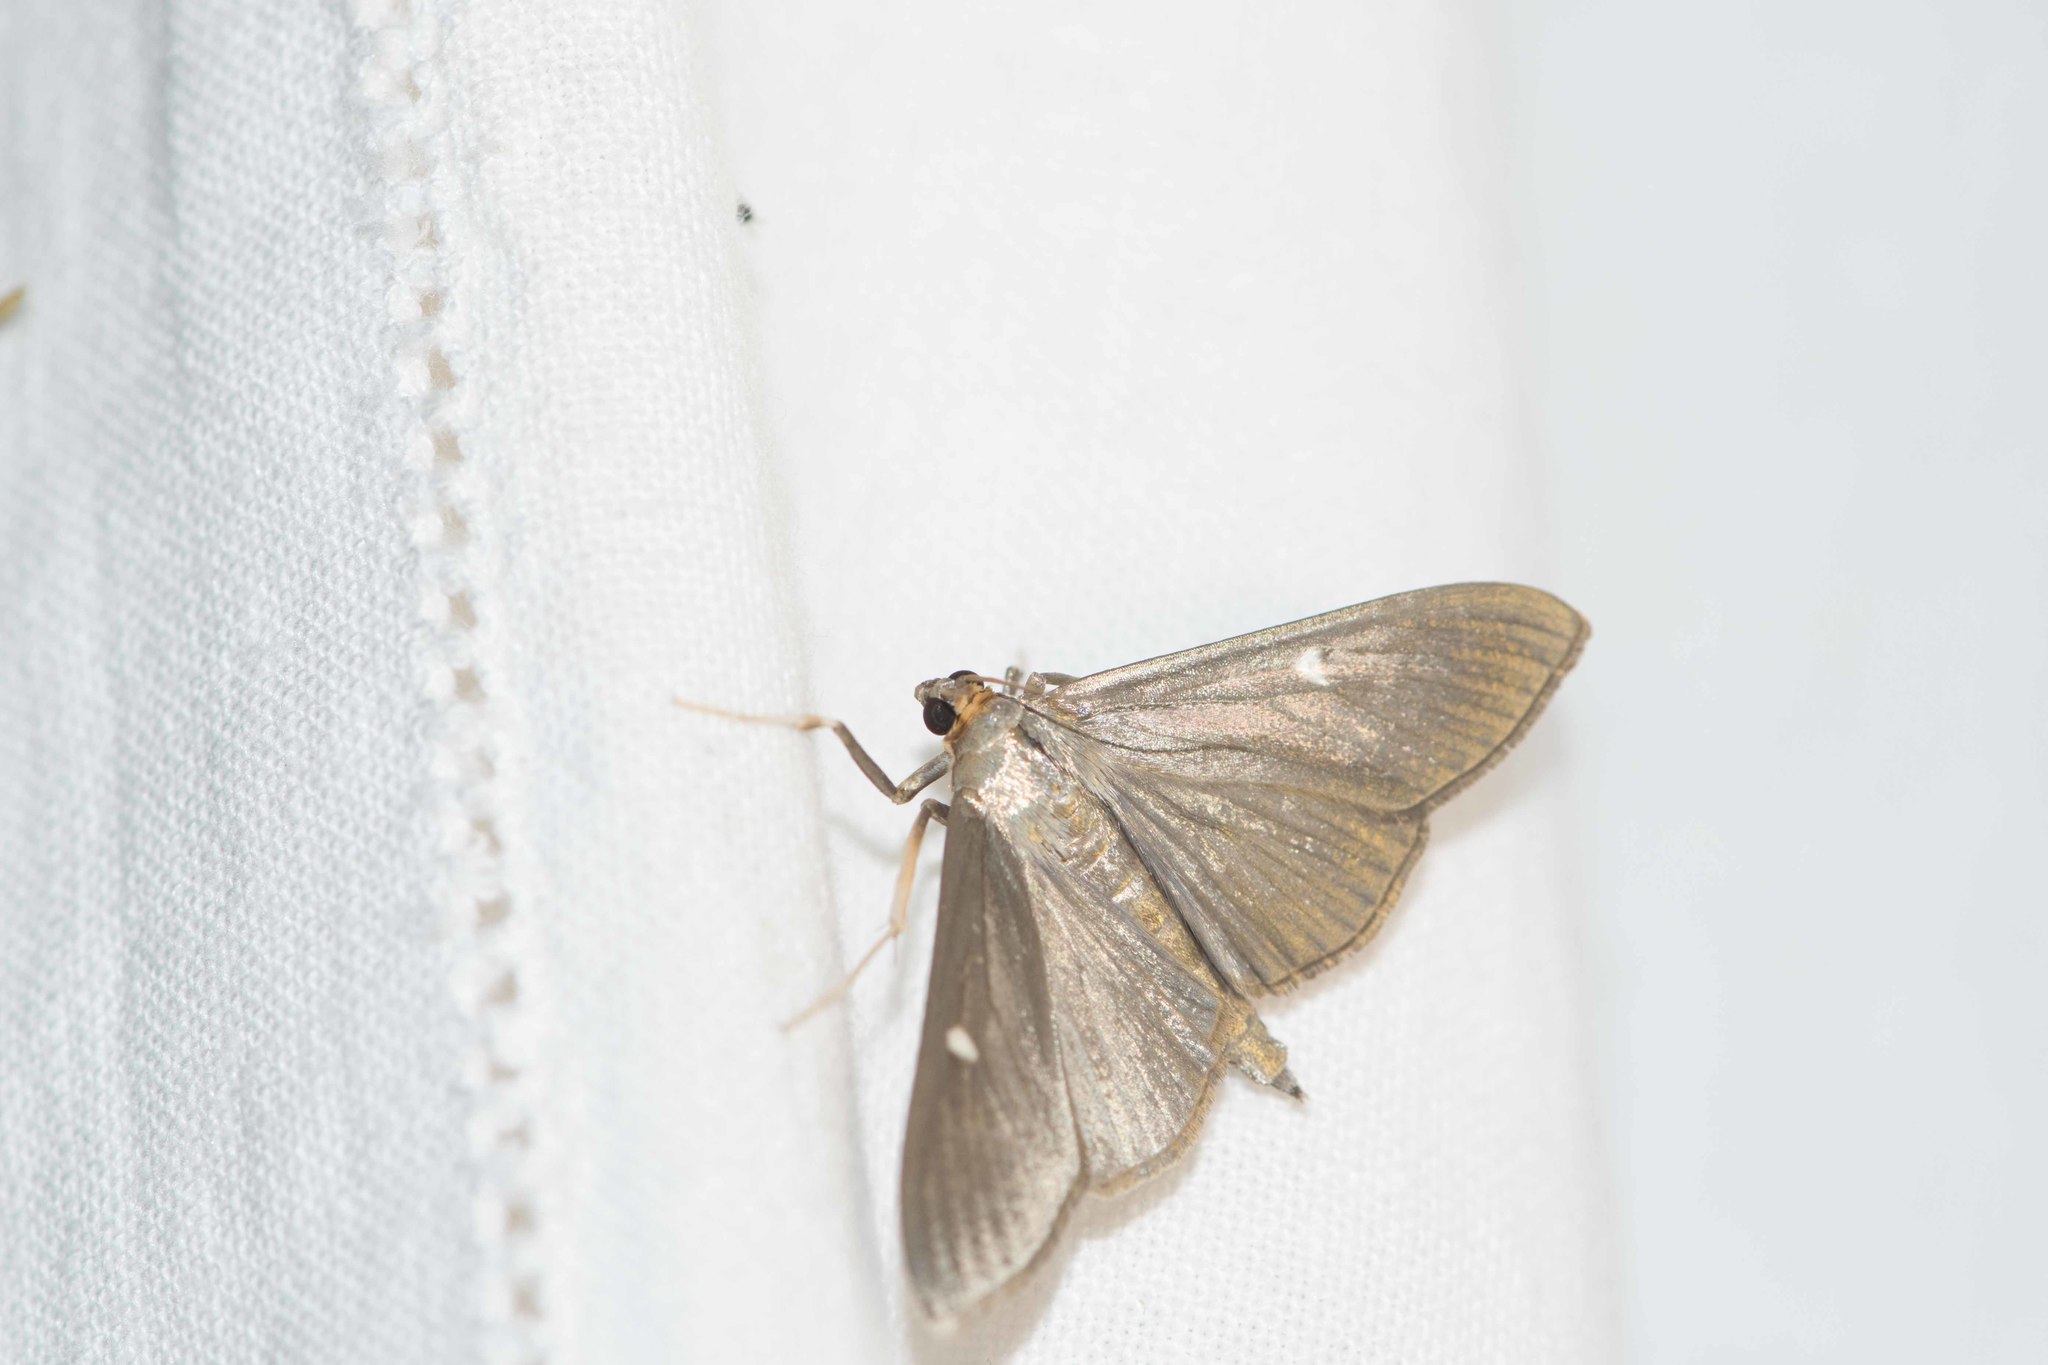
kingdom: Animalia
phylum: Arthropoda
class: Insecta
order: Lepidoptera
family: Crambidae
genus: Cydalima
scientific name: Cydalima perspectalis
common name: Box tree moth
